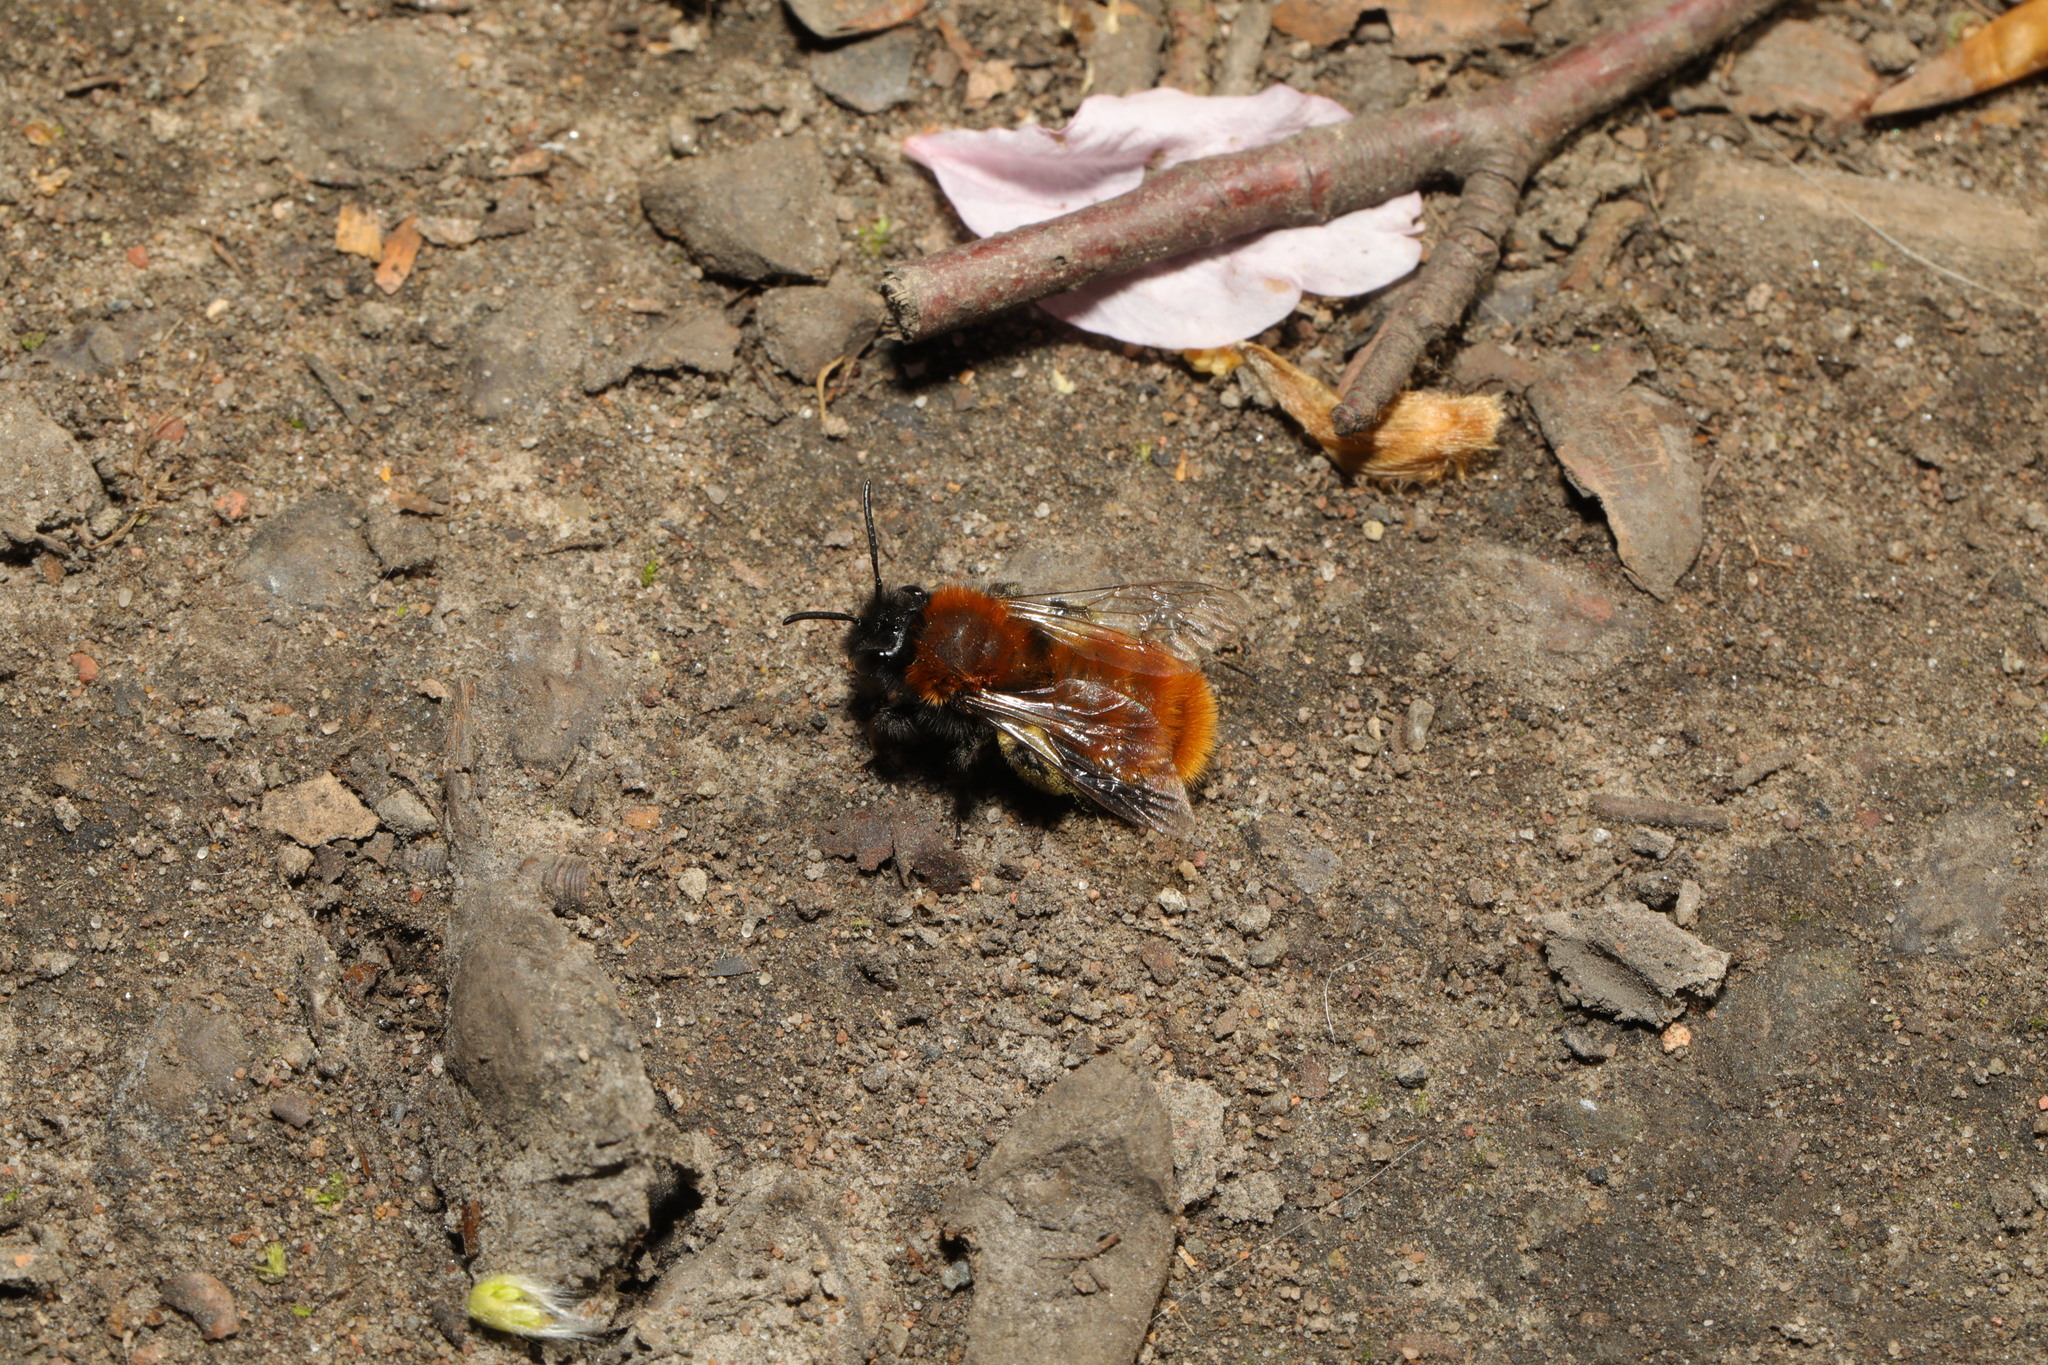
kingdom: Animalia
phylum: Arthropoda
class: Insecta
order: Hymenoptera
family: Andrenidae
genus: Andrena
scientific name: Andrena fulva
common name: Tawny mining bee
